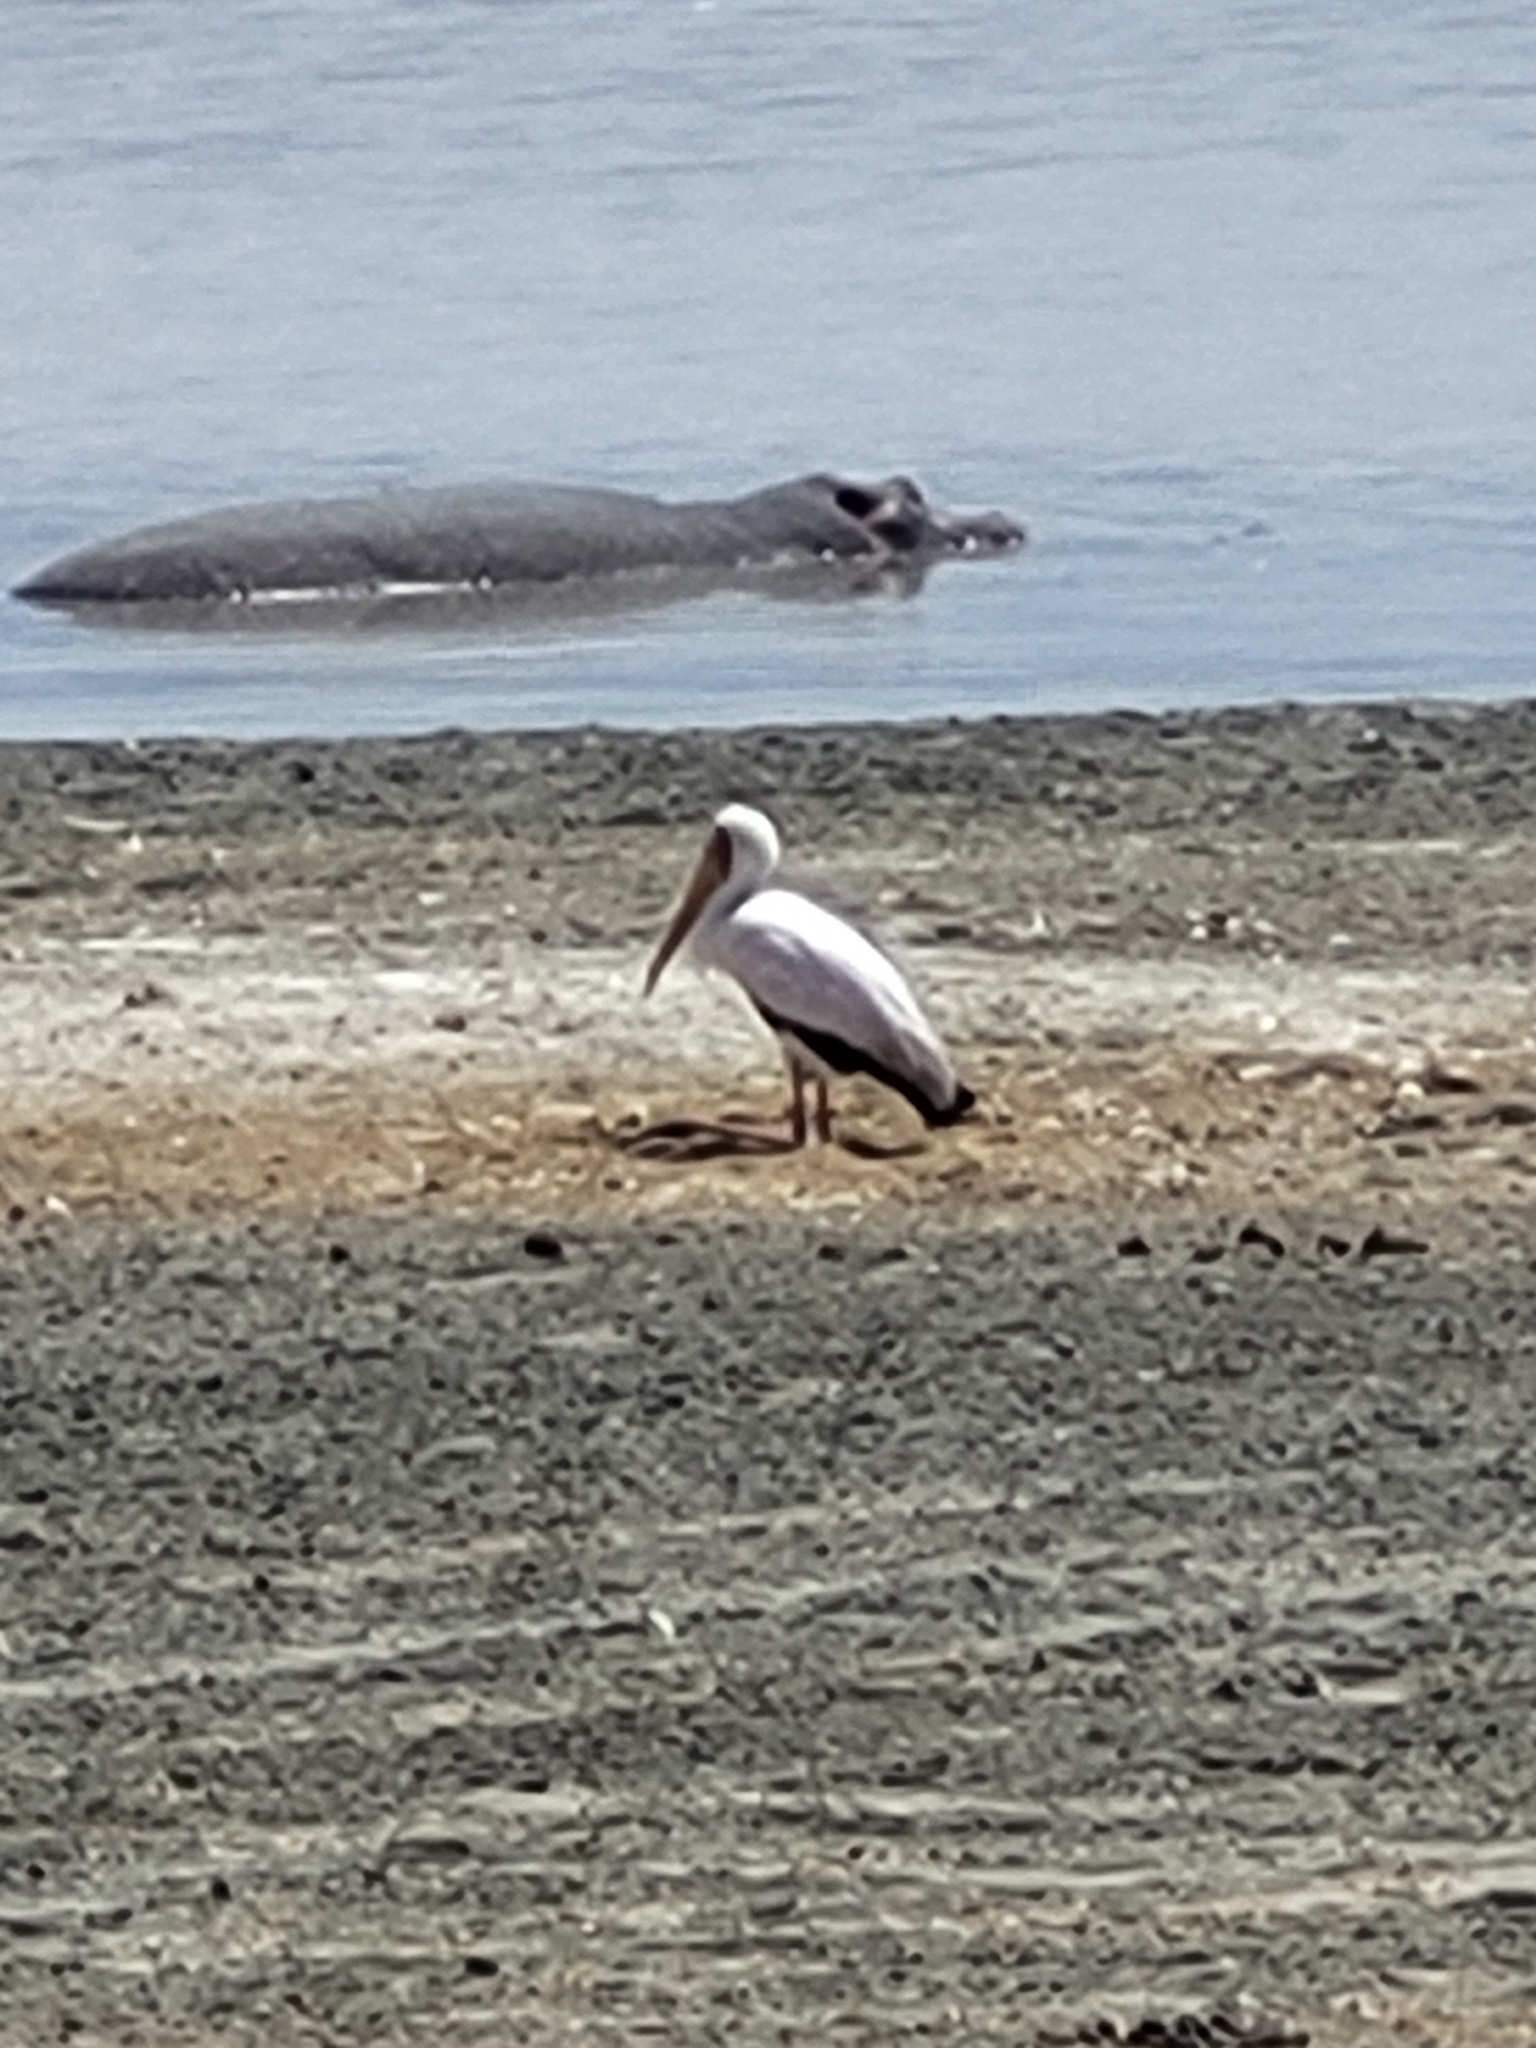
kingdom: Animalia
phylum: Chordata
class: Aves
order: Ciconiiformes
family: Ciconiidae
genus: Mycteria
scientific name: Mycteria ibis
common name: Yellow-billed stork
